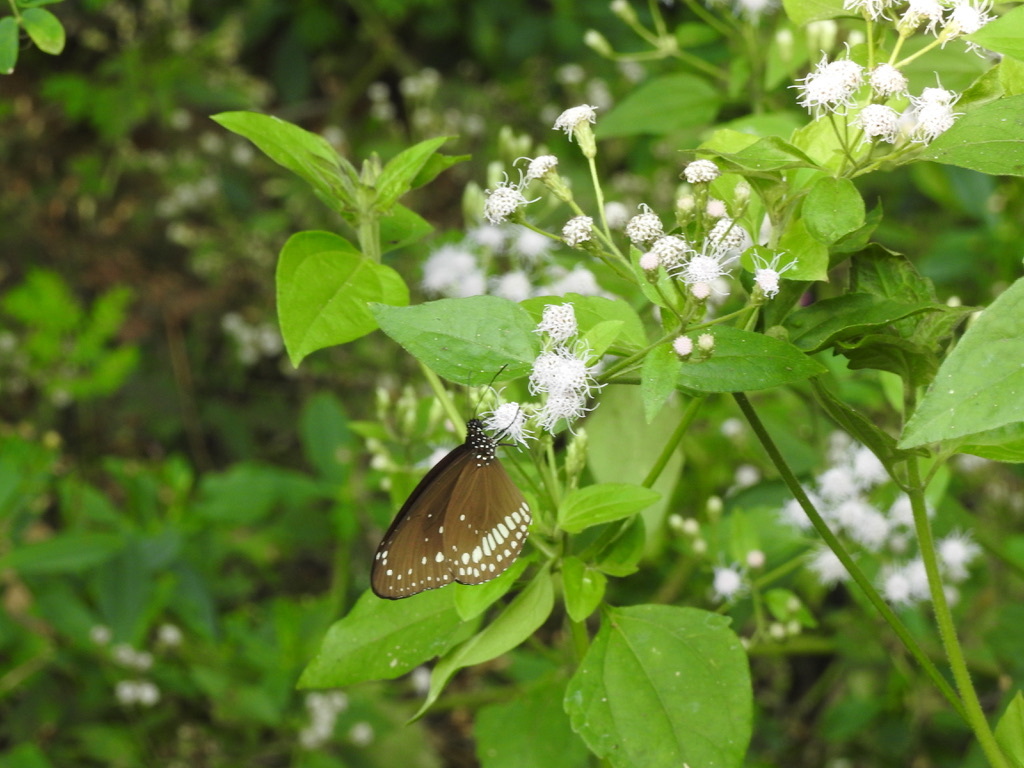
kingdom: Animalia
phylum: Arthropoda
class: Insecta
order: Lepidoptera
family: Nymphalidae
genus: Euploea
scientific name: Euploea core
